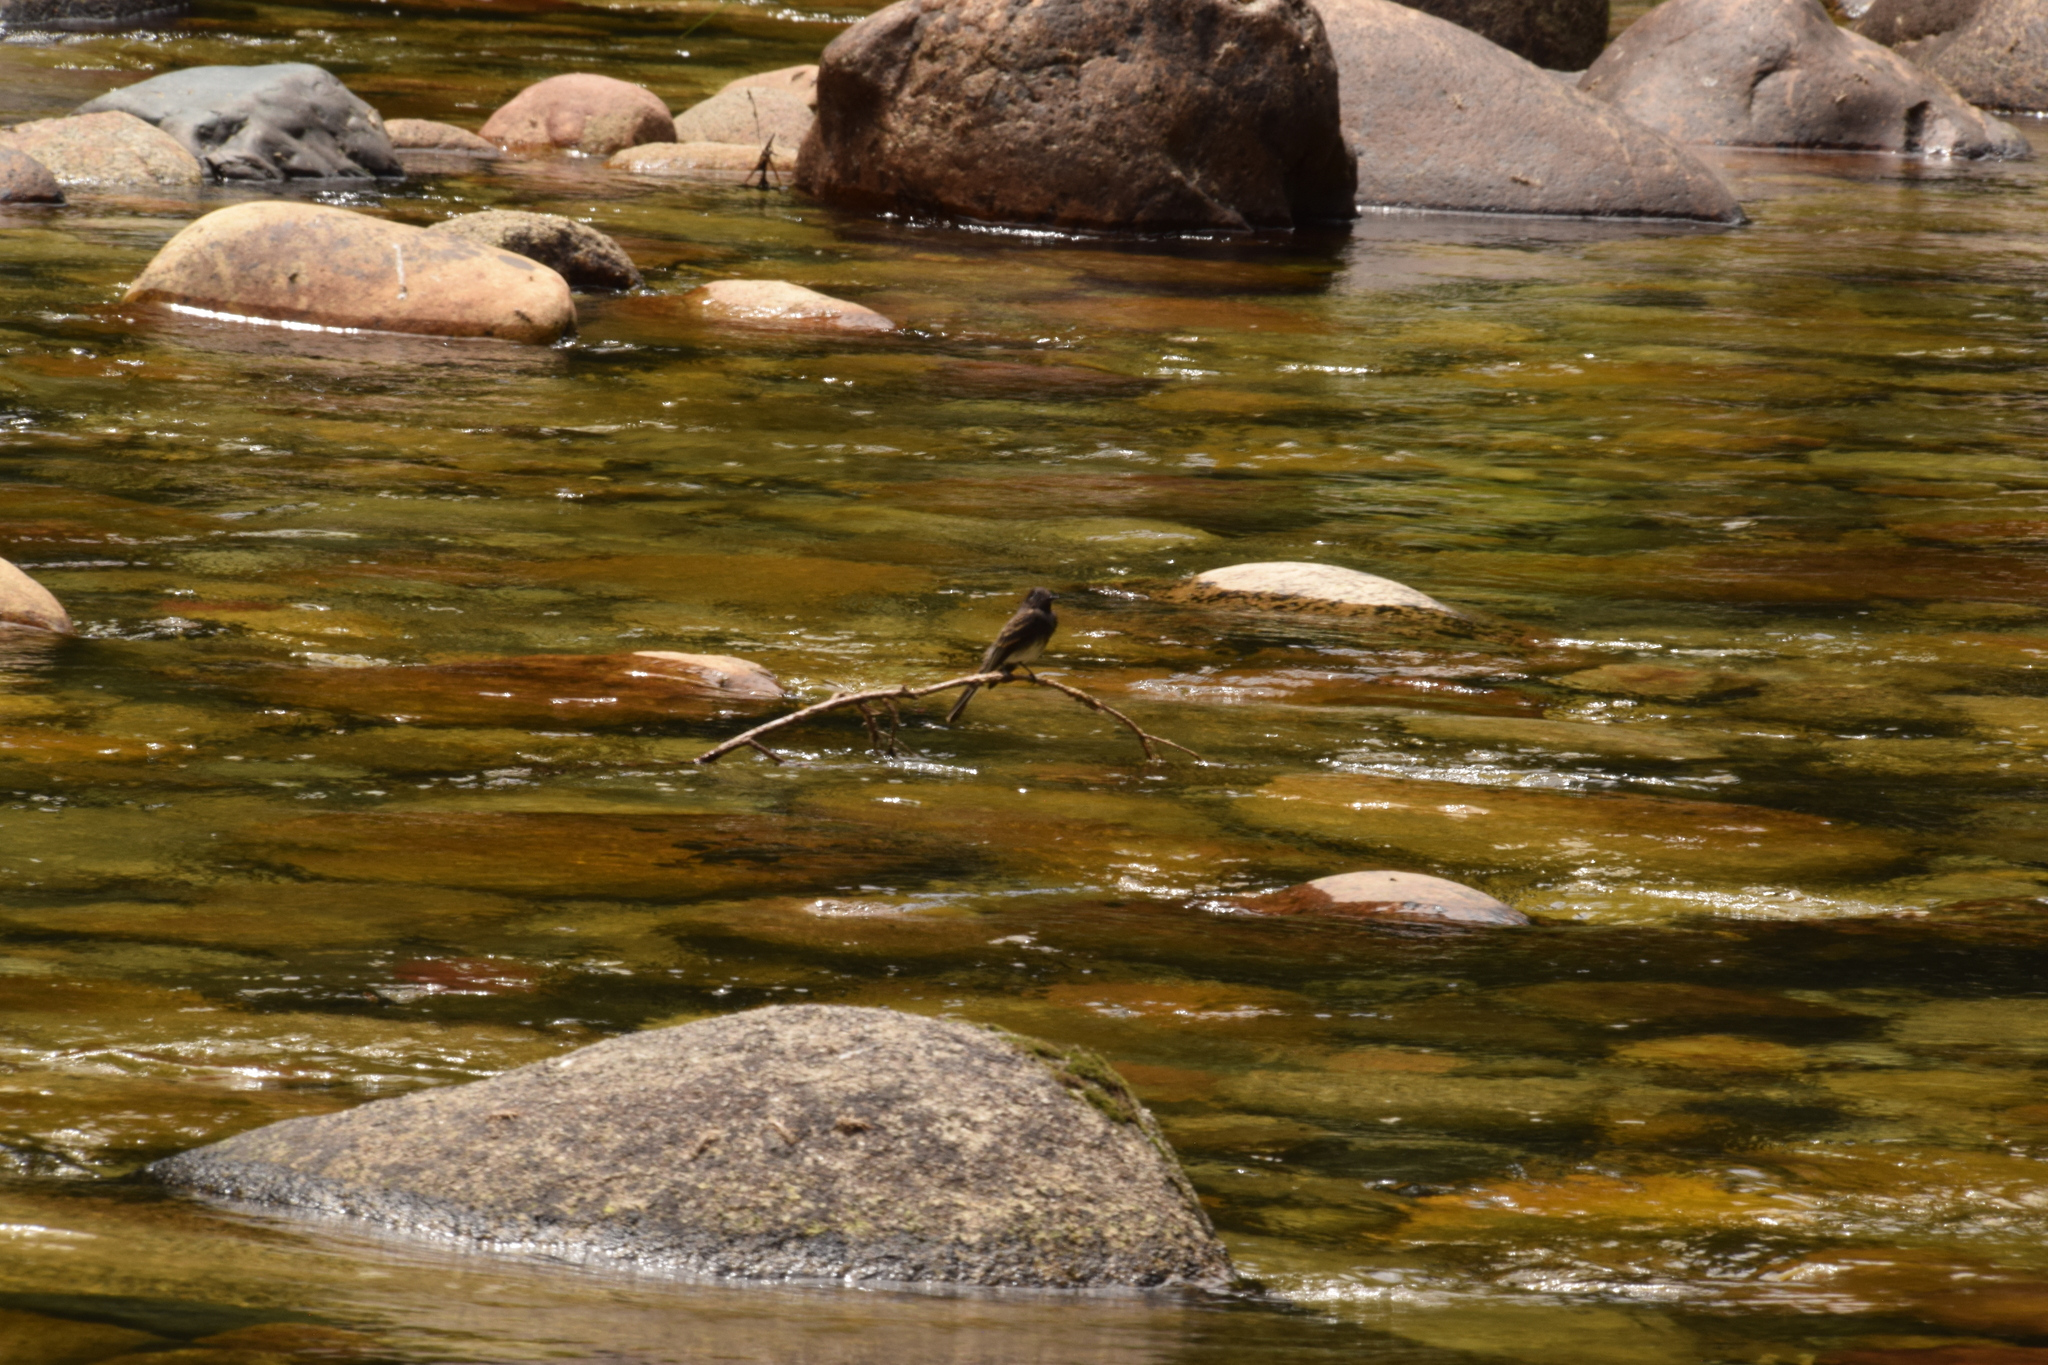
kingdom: Animalia
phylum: Chordata
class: Aves
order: Passeriformes
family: Tyrannidae
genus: Sayornis
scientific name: Sayornis nigricans
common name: Black phoebe
